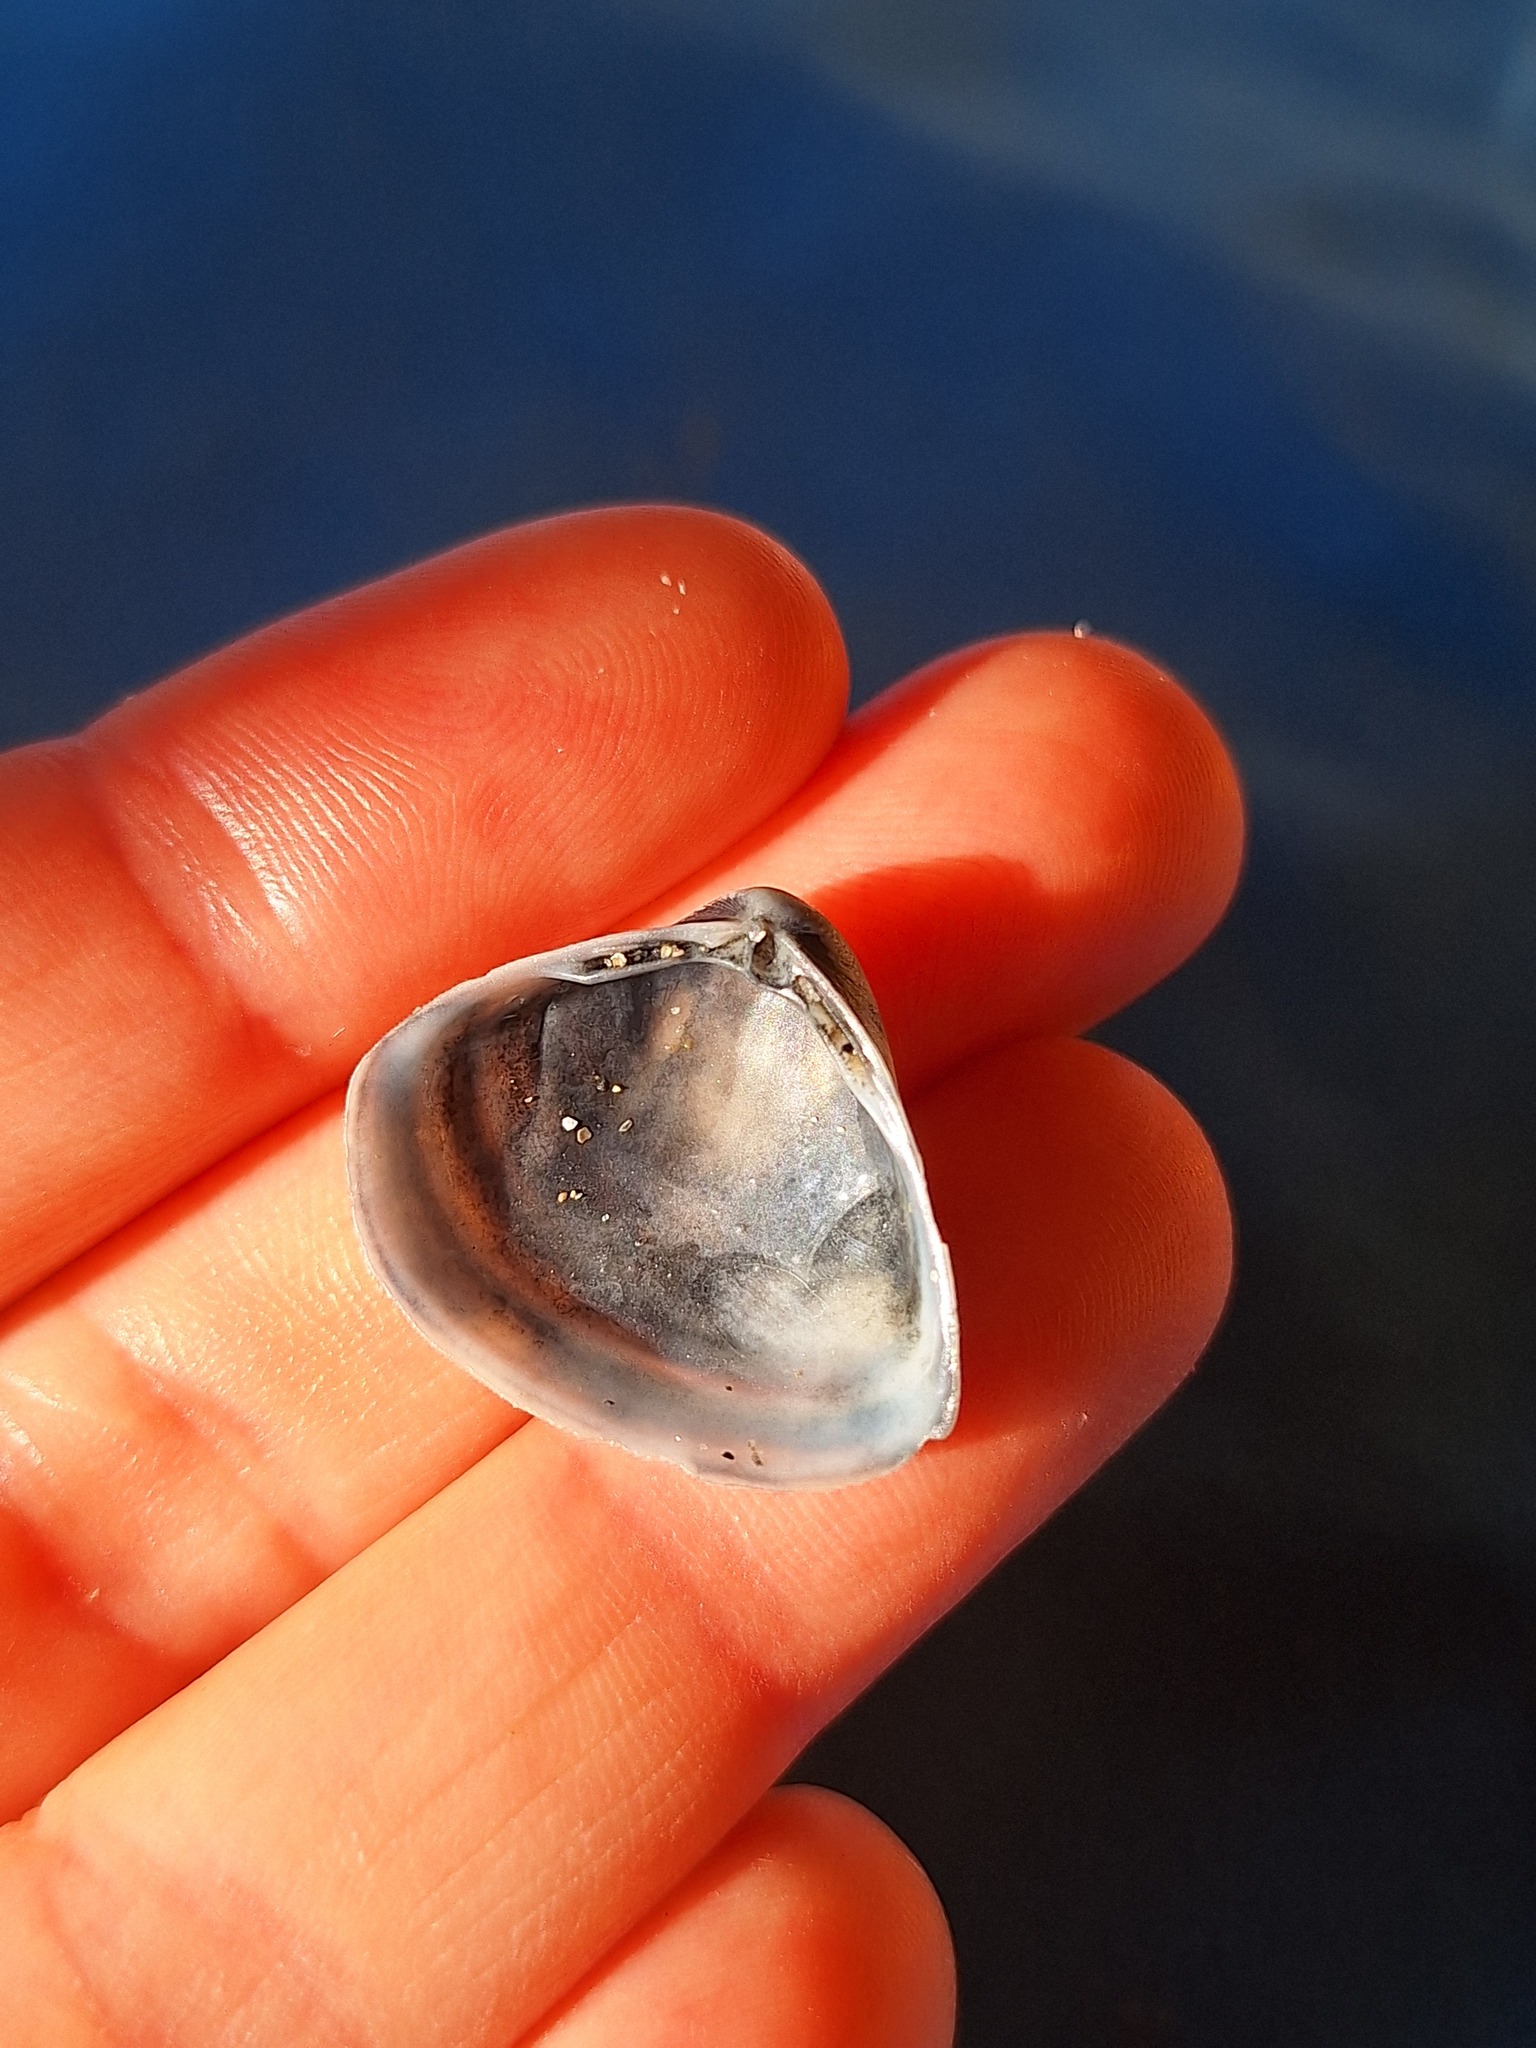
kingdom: Animalia
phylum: Mollusca
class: Bivalvia
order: Venerida
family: Mactridae
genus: Spisula
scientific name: Spisula subtruncata
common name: Cut trough shell
